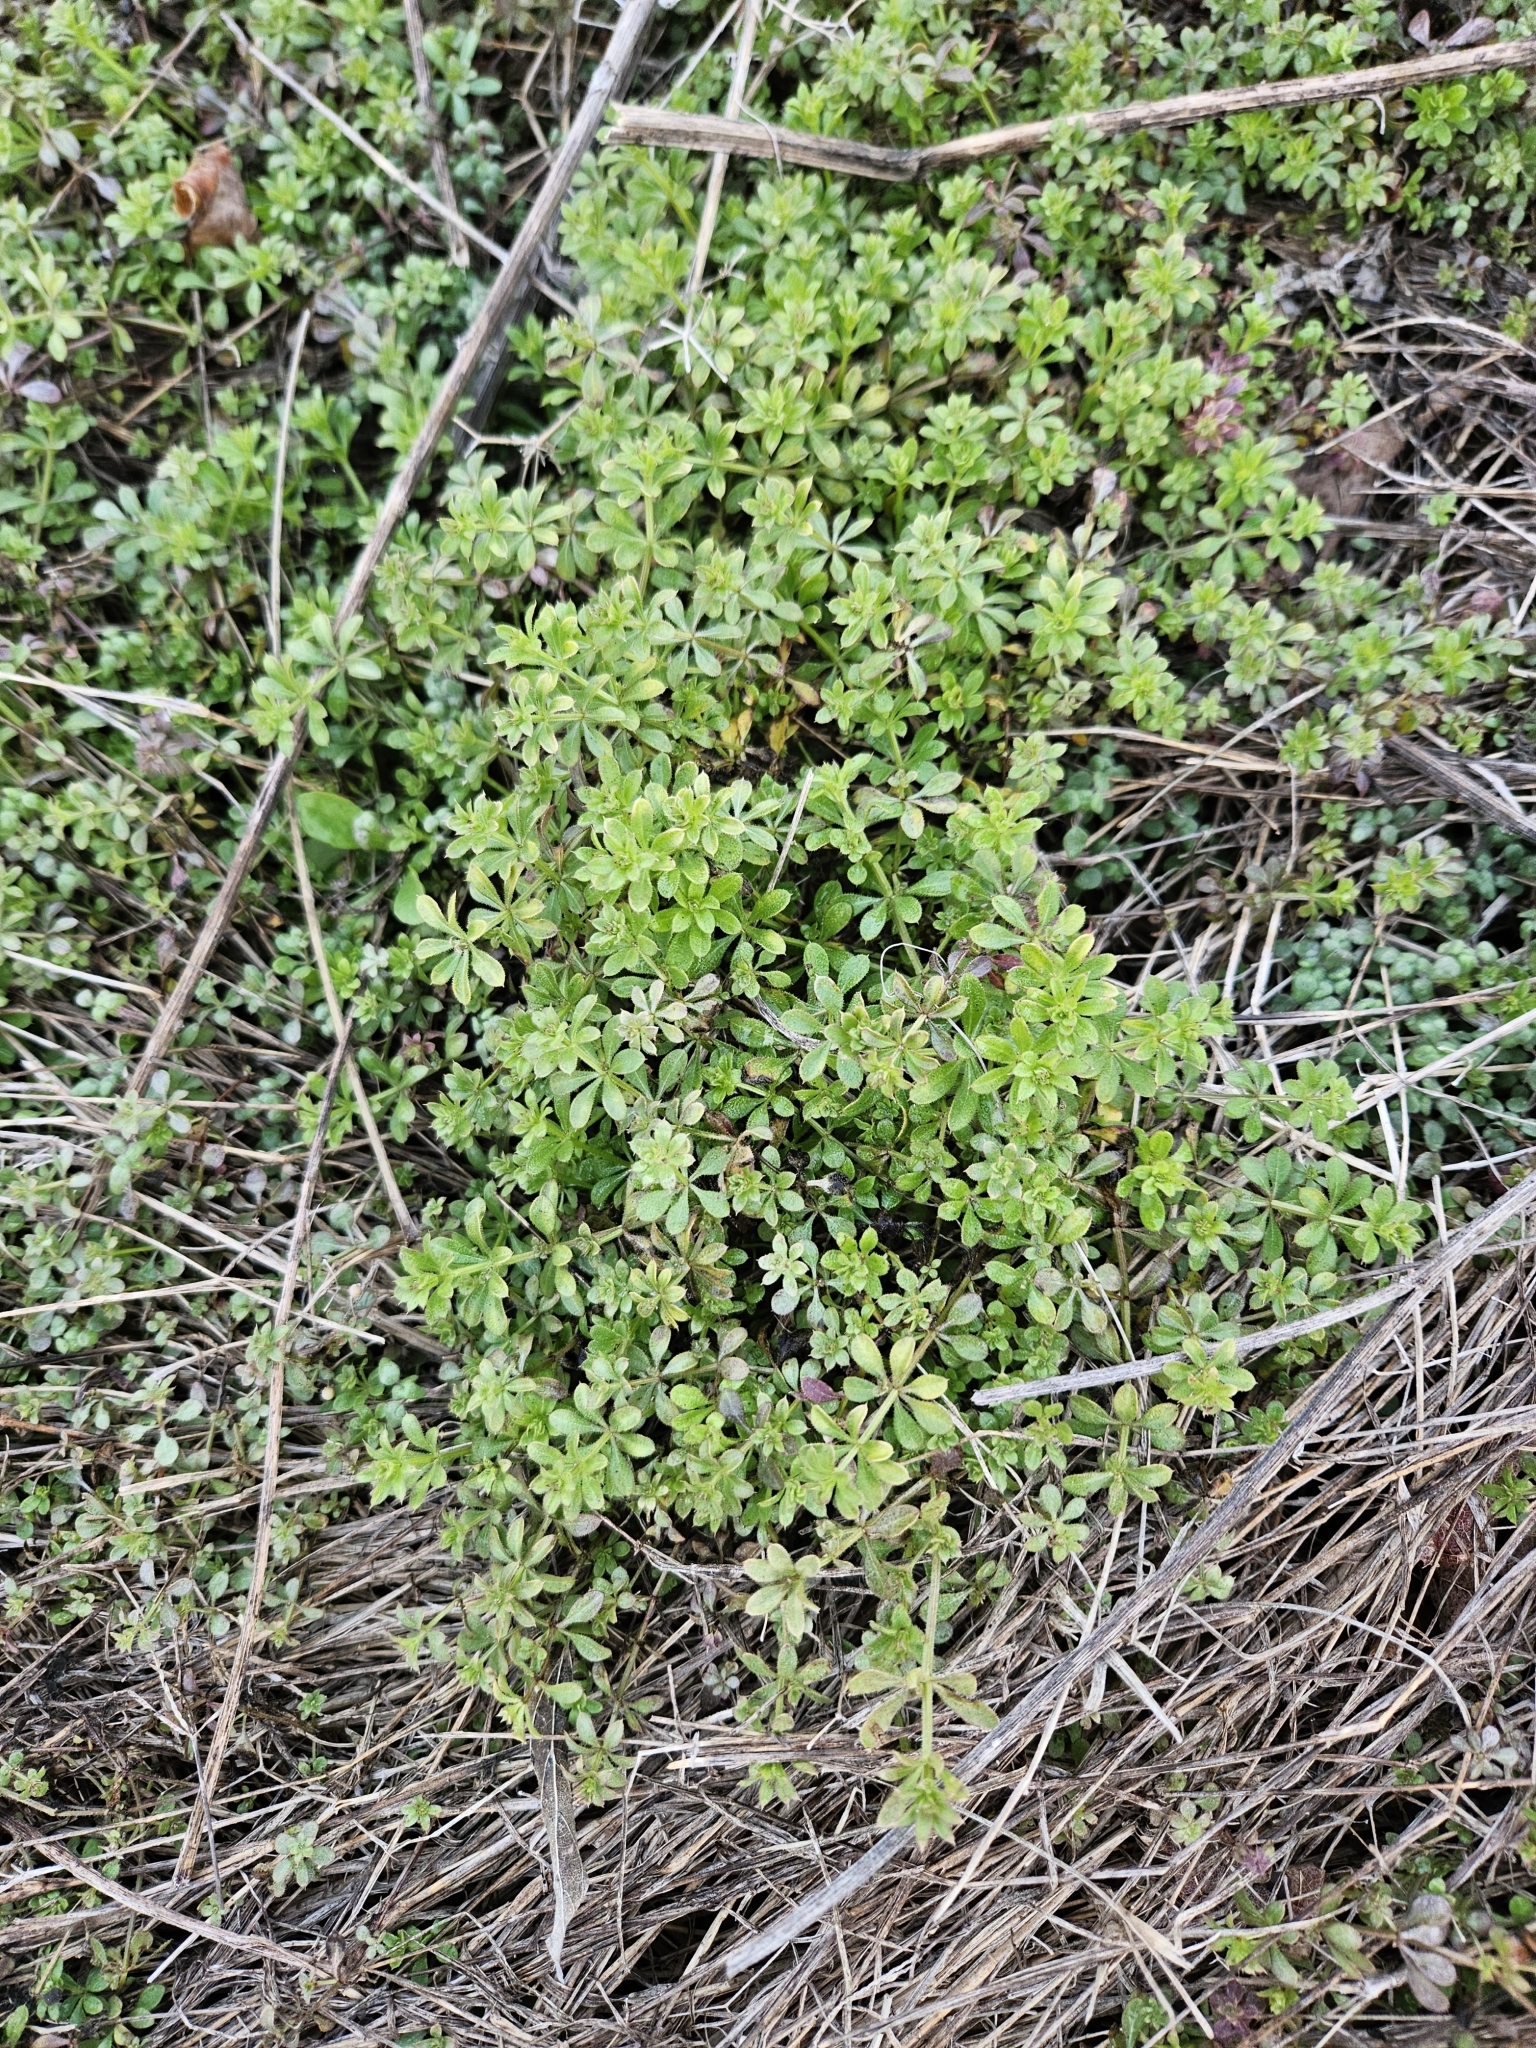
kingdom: Plantae
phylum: Tracheophyta
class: Magnoliopsida
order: Gentianales
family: Rubiaceae
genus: Galium
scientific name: Galium aparine
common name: Cleavers
